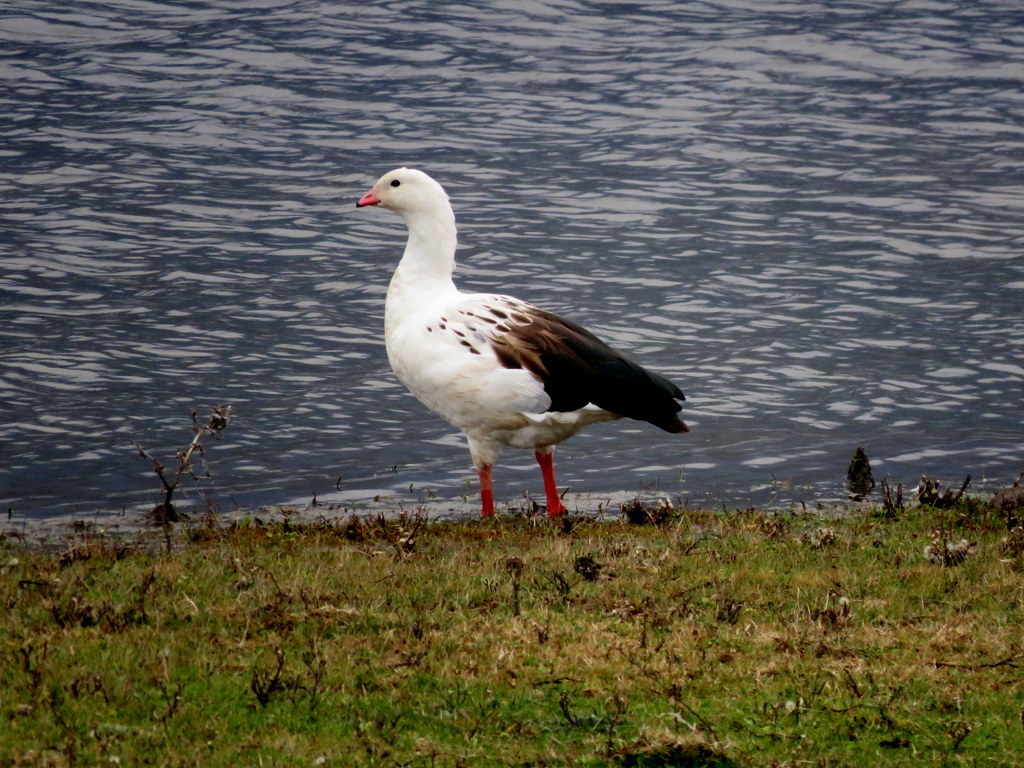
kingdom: Animalia
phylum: Chordata
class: Aves
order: Anseriformes
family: Anatidae
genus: Chloephaga
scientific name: Chloephaga melanoptera
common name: Andean goose
